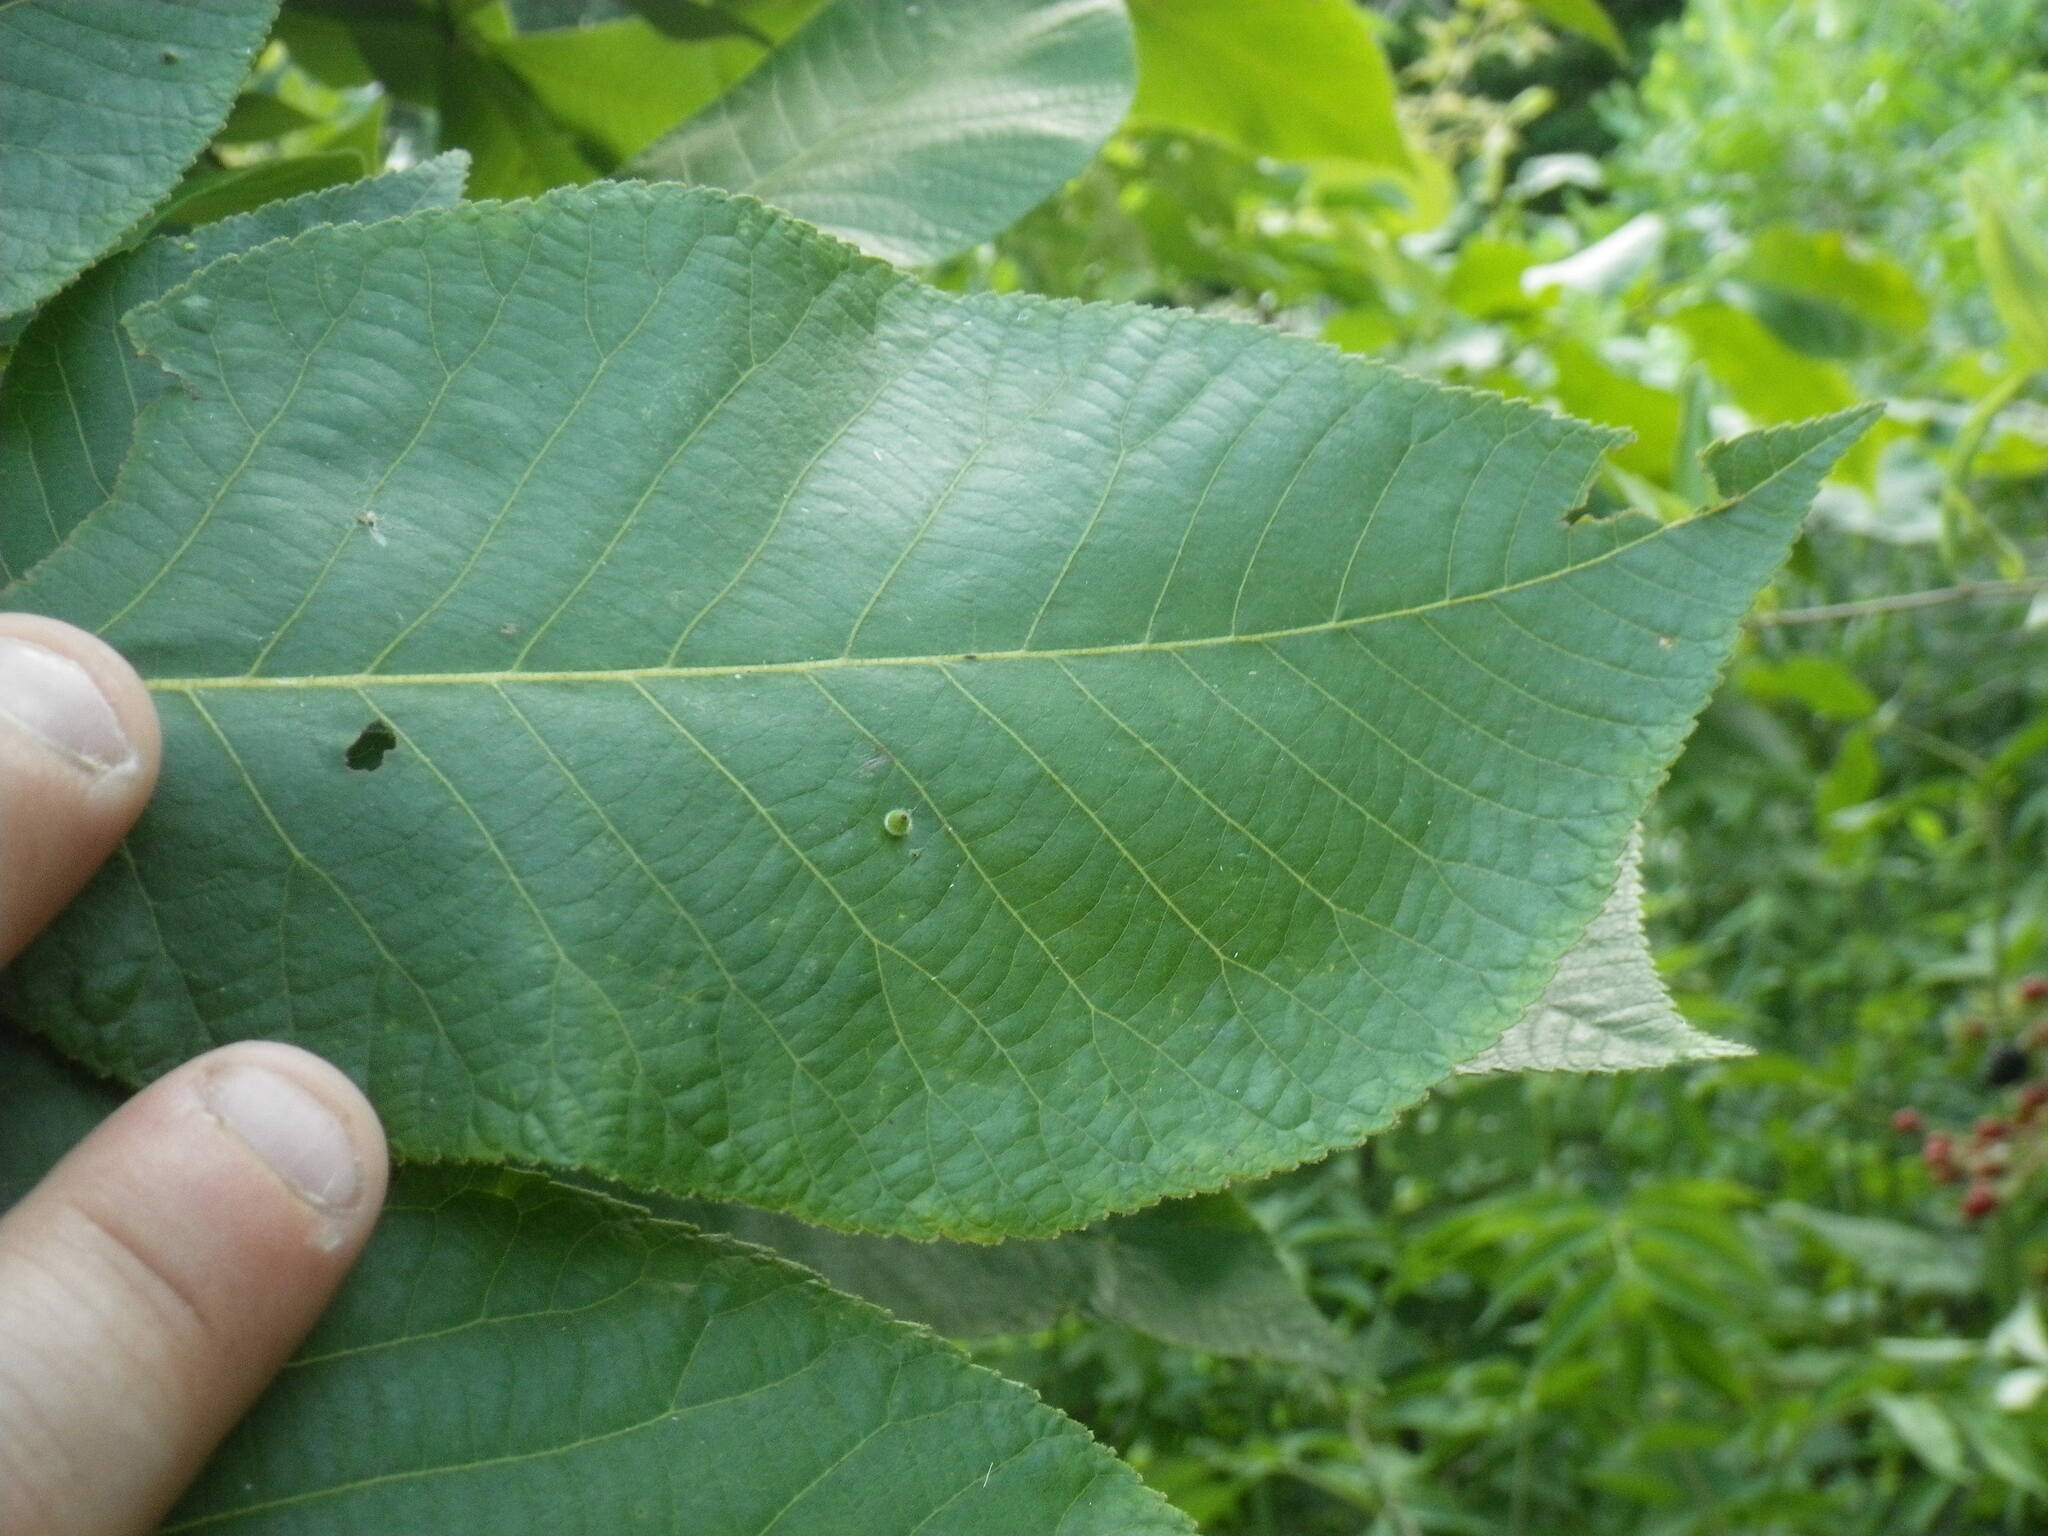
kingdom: Animalia
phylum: Arthropoda
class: Insecta
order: Diptera
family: Cecidomyiidae
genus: Caryomyia
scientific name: Caryomyia viscidolium
